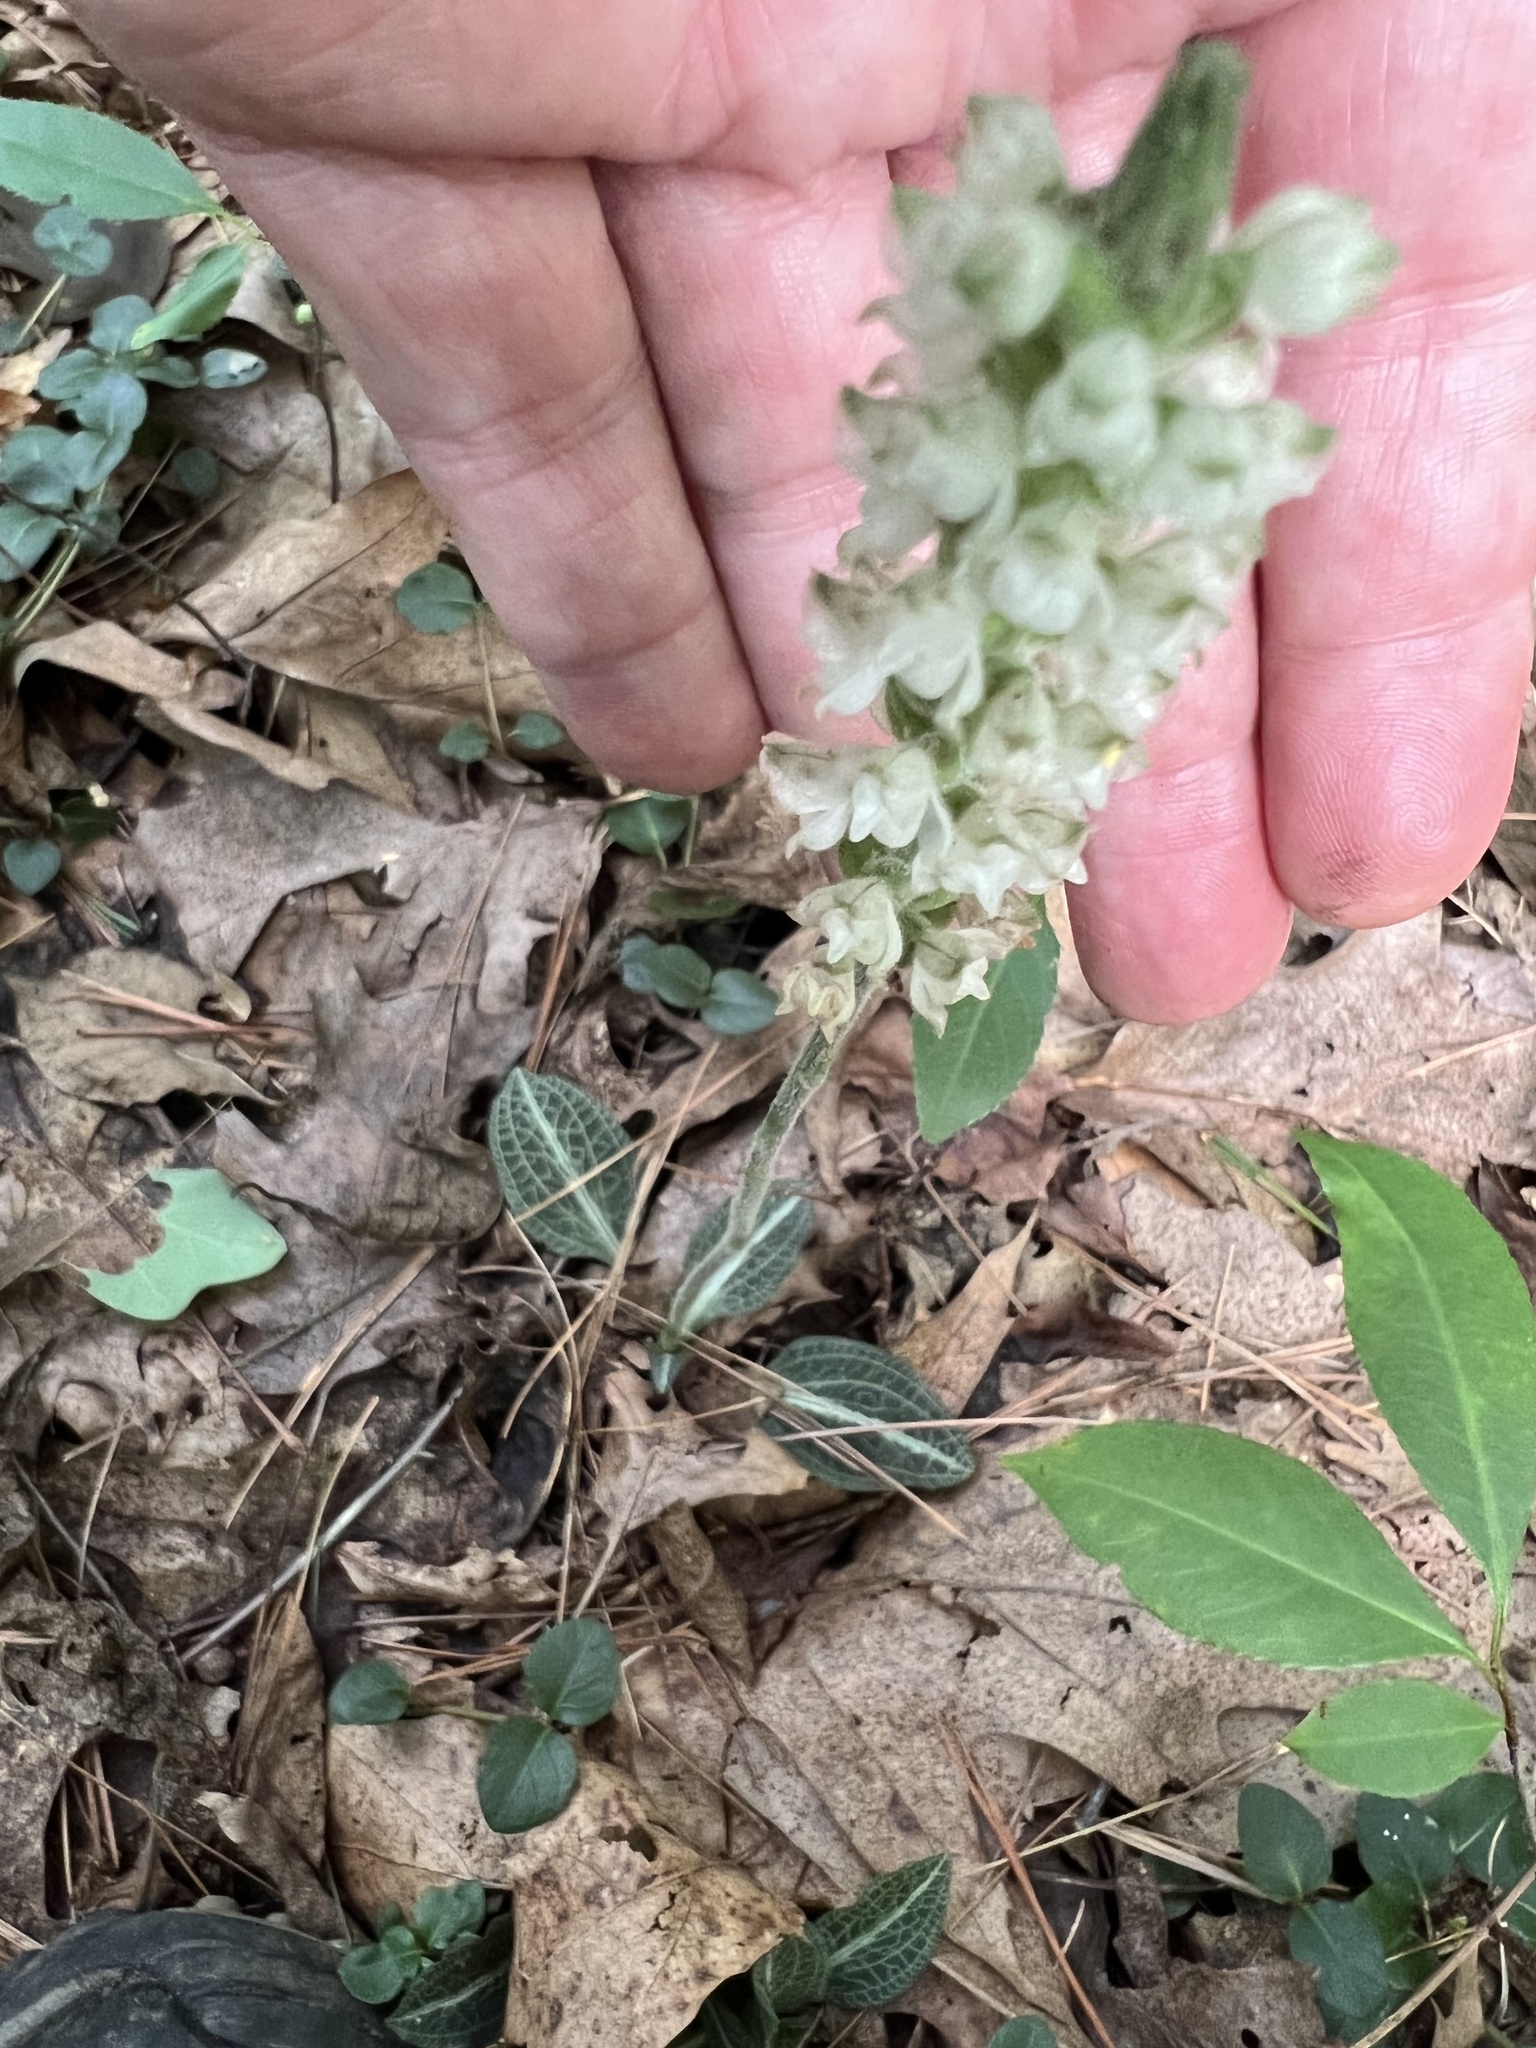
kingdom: Plantae
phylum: Tracheophyta
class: Liliopsida
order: Asparagales
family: Orchidaceae
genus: Goodyera
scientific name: Goodyera pubescens
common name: Downy rattlesnake-plantain
